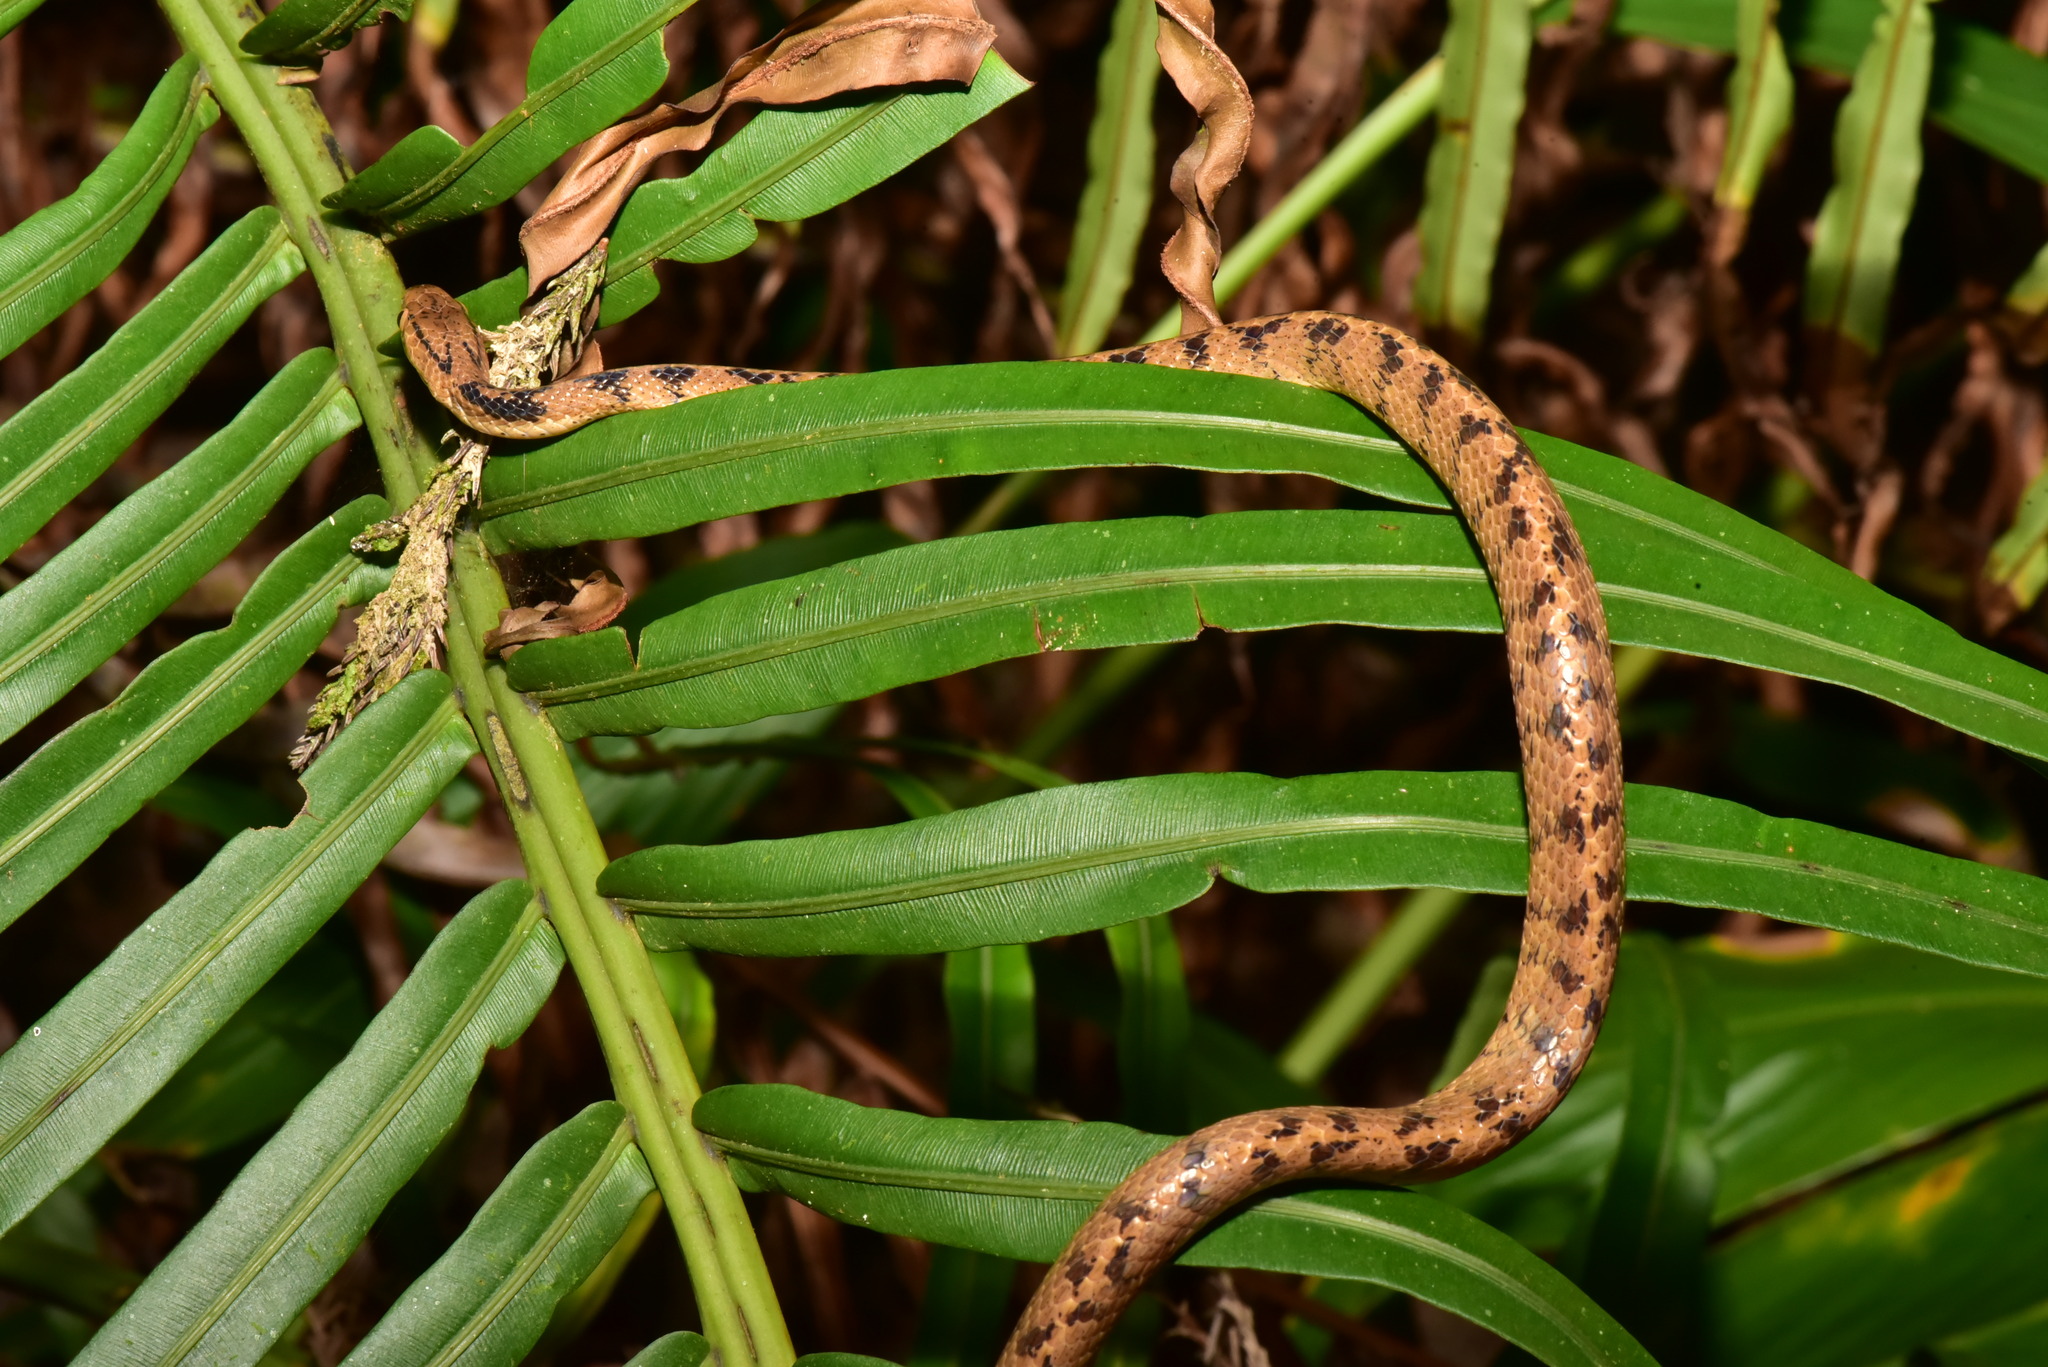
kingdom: Animalia
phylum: Chordata
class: Squamata
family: Pareidae
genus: Pareas
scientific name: Pareas atayal
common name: Atayal slug-eating snake
